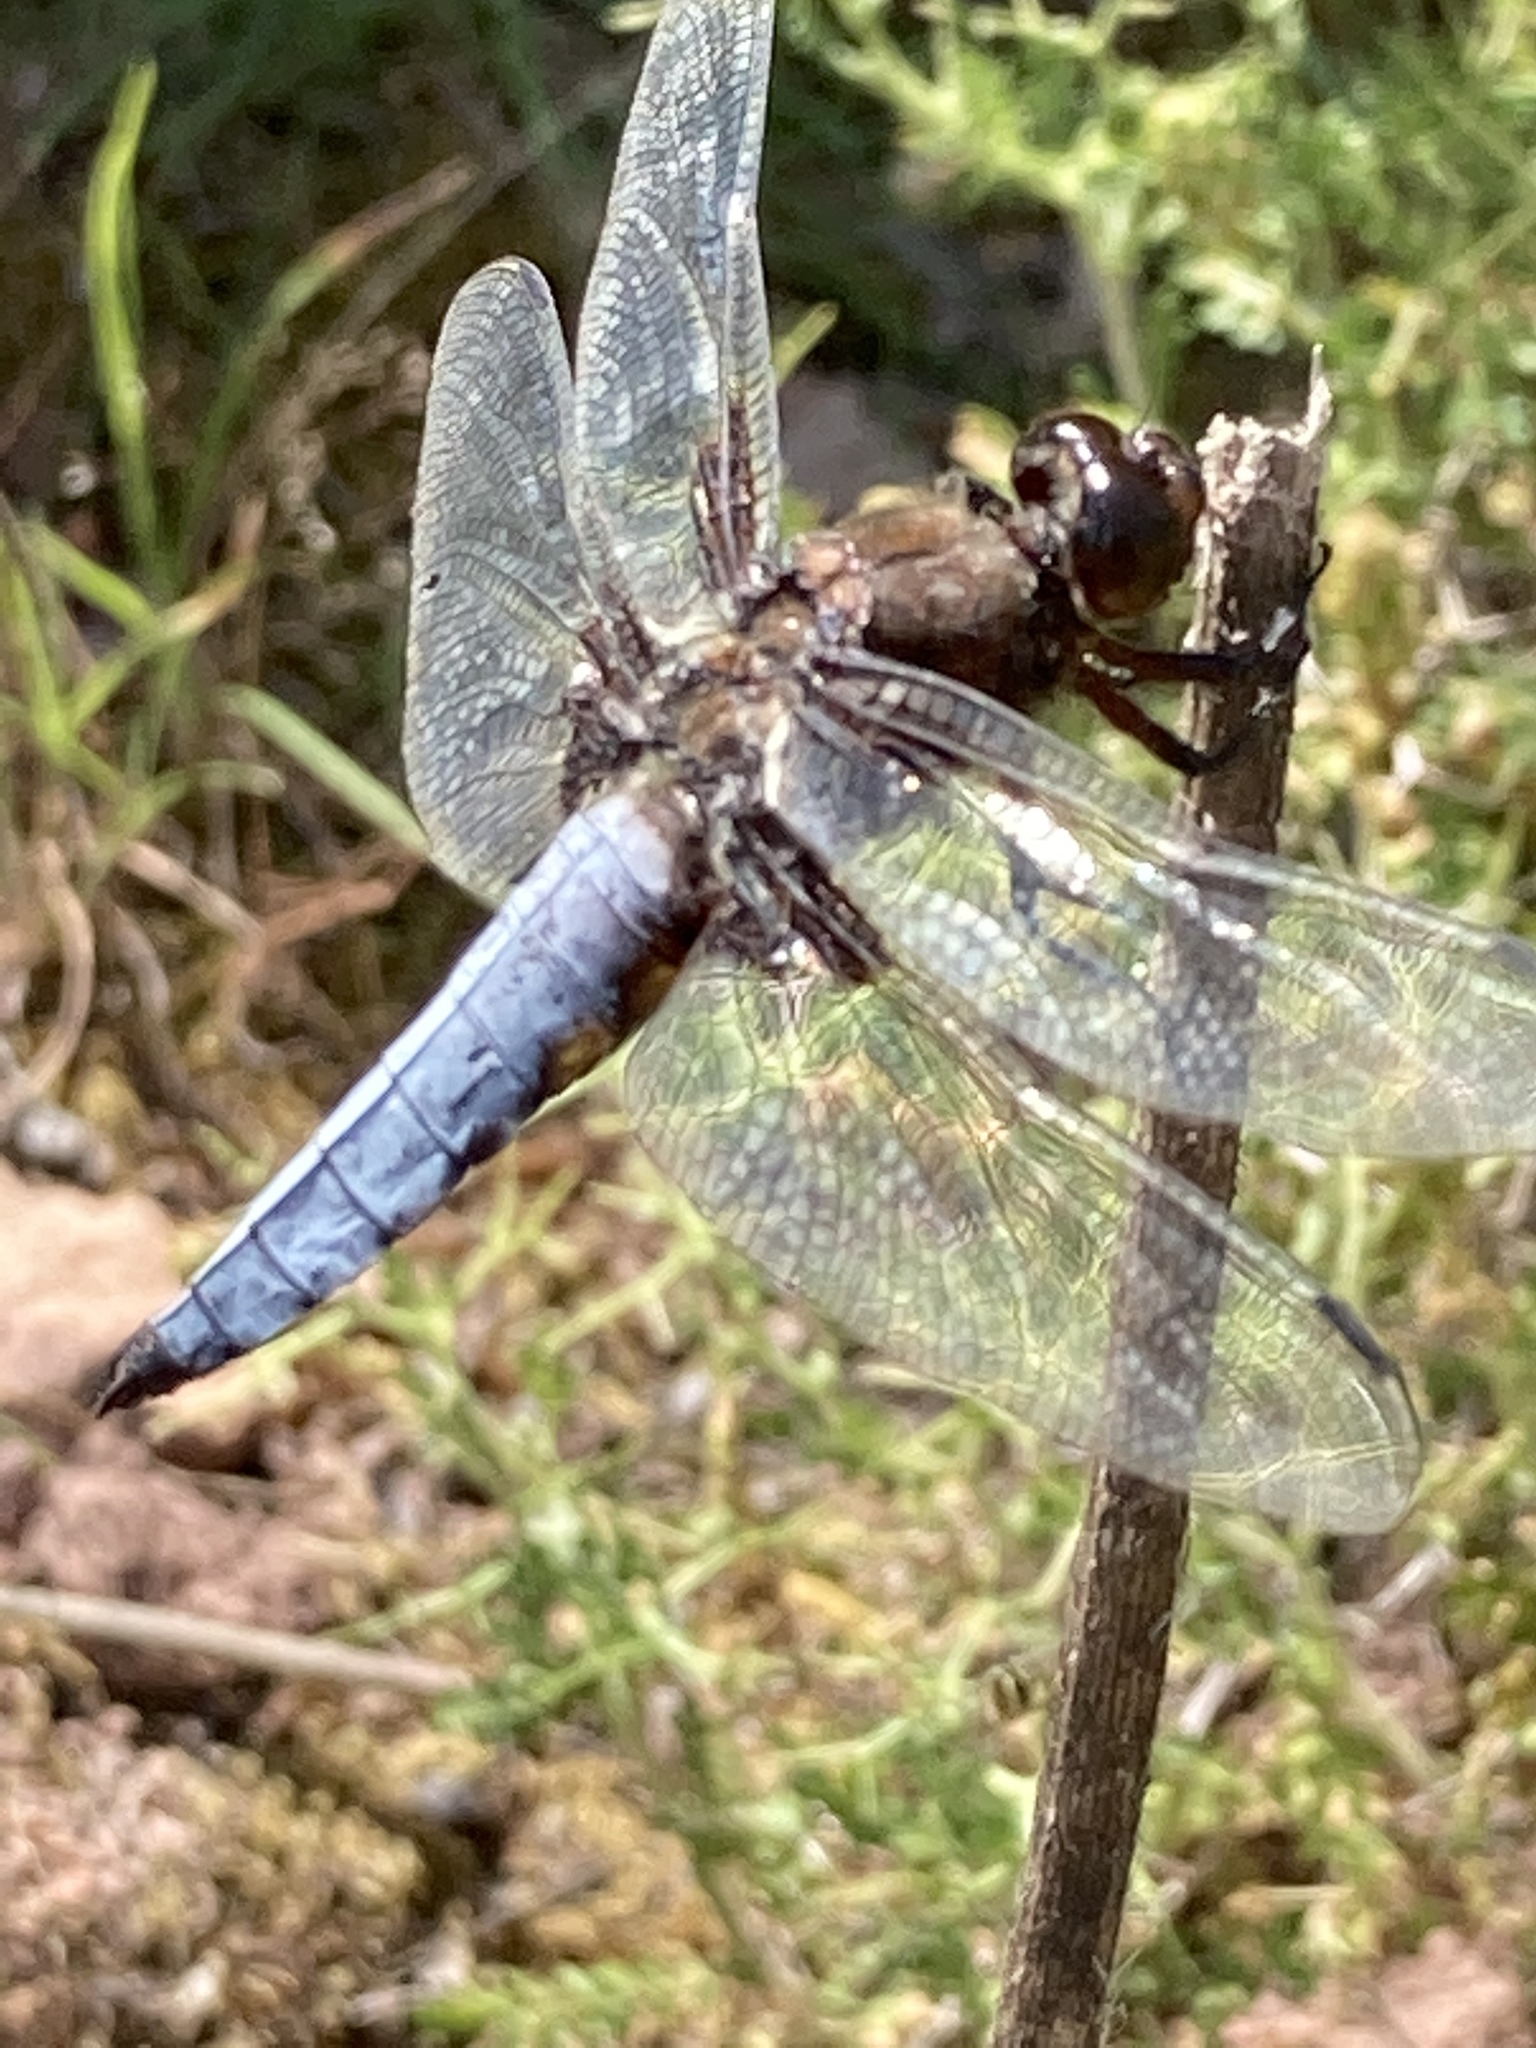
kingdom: Animalia
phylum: Arthropoda
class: Insecta
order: Odonata
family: Libellulidae
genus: Libellula
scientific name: Libellula depressa
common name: Broad-bodied chaser
